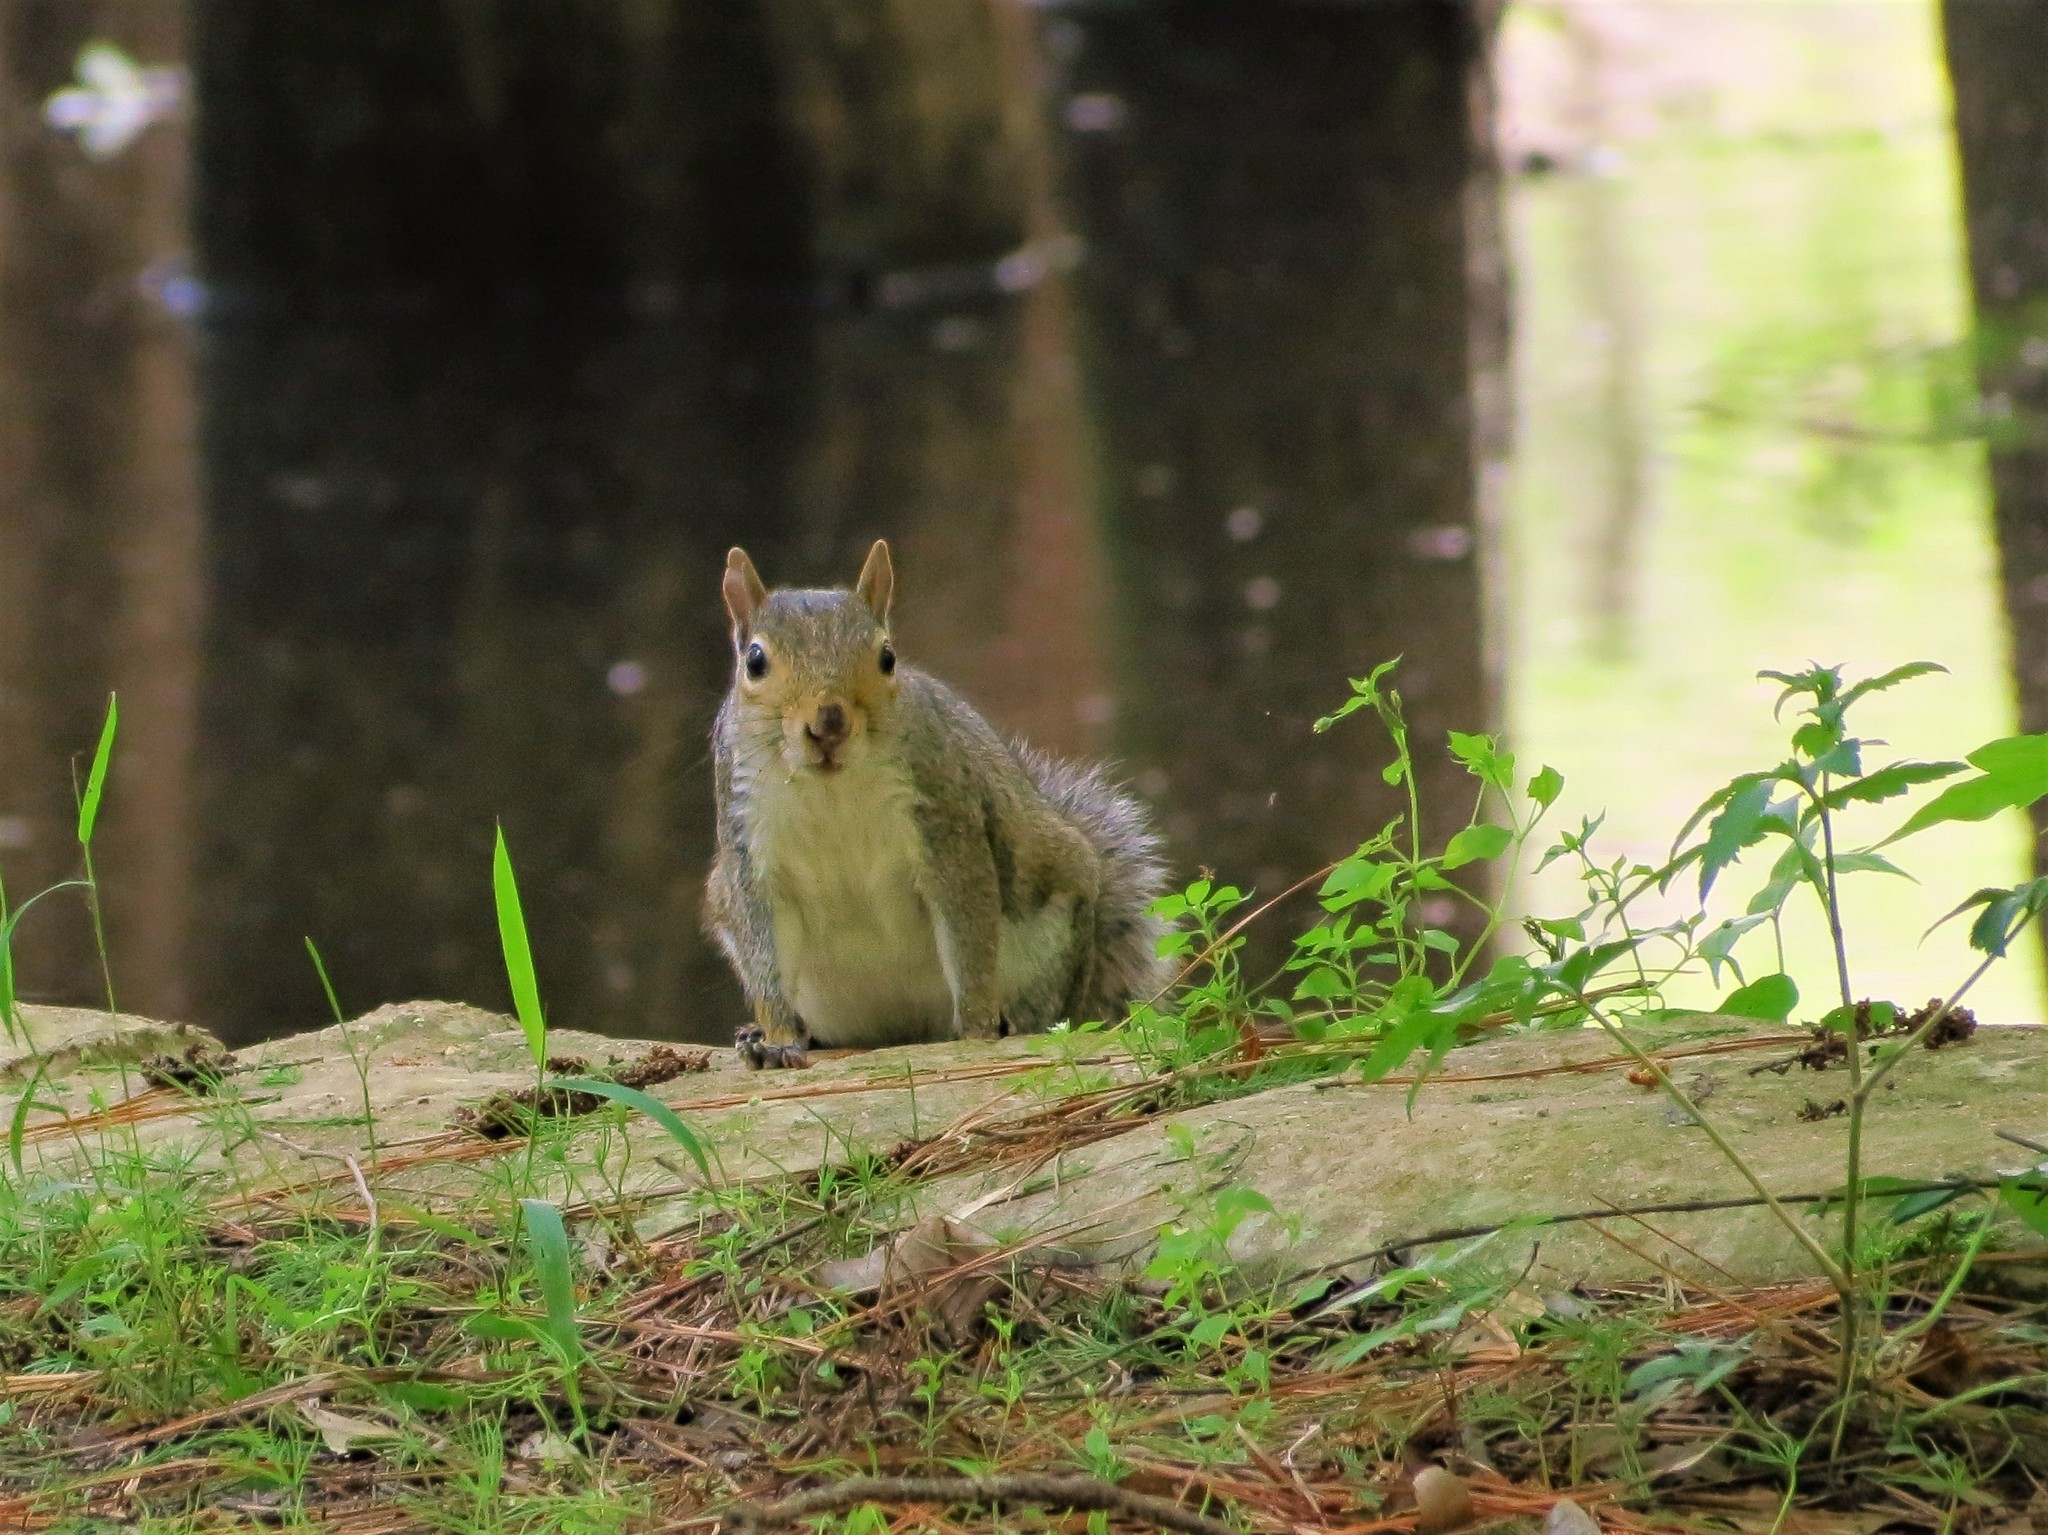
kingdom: Animalia
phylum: Chordata
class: Mammalia
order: Rodentia
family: Sciuridae
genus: Sciurus
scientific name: Sciurus carolinensis
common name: Eastern gray squirrel
